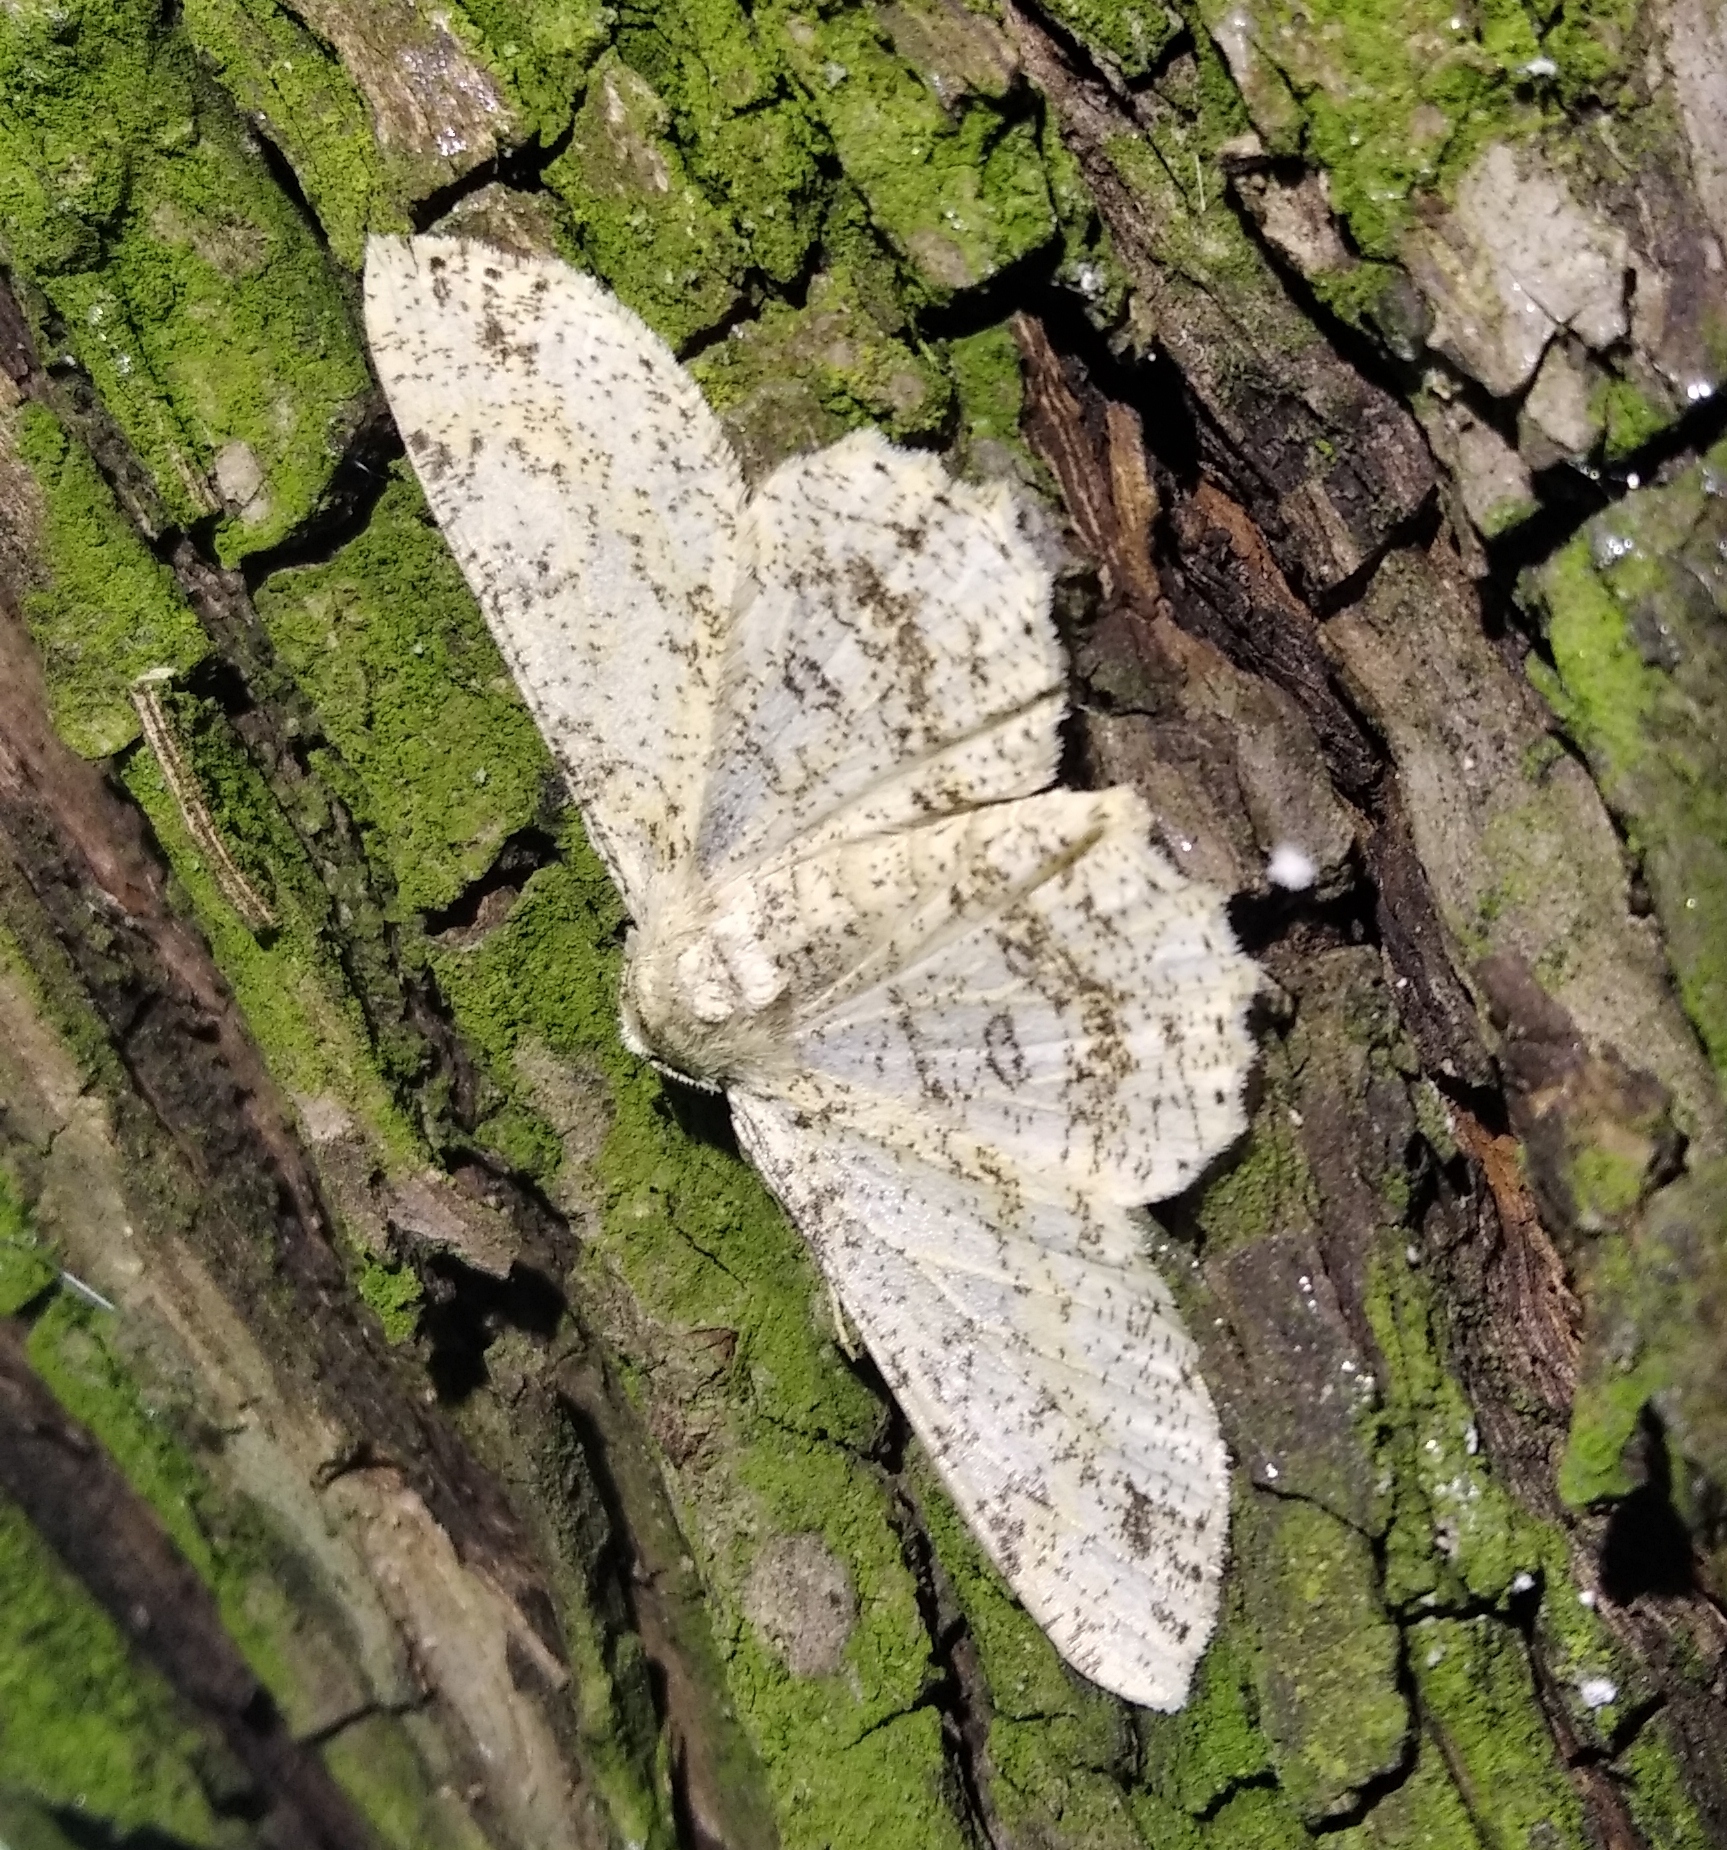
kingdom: Animalia
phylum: Arthropoda
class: Insecta
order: Lepidoptera
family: Geometridae
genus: Ascotis
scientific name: Ascotis selenaria
